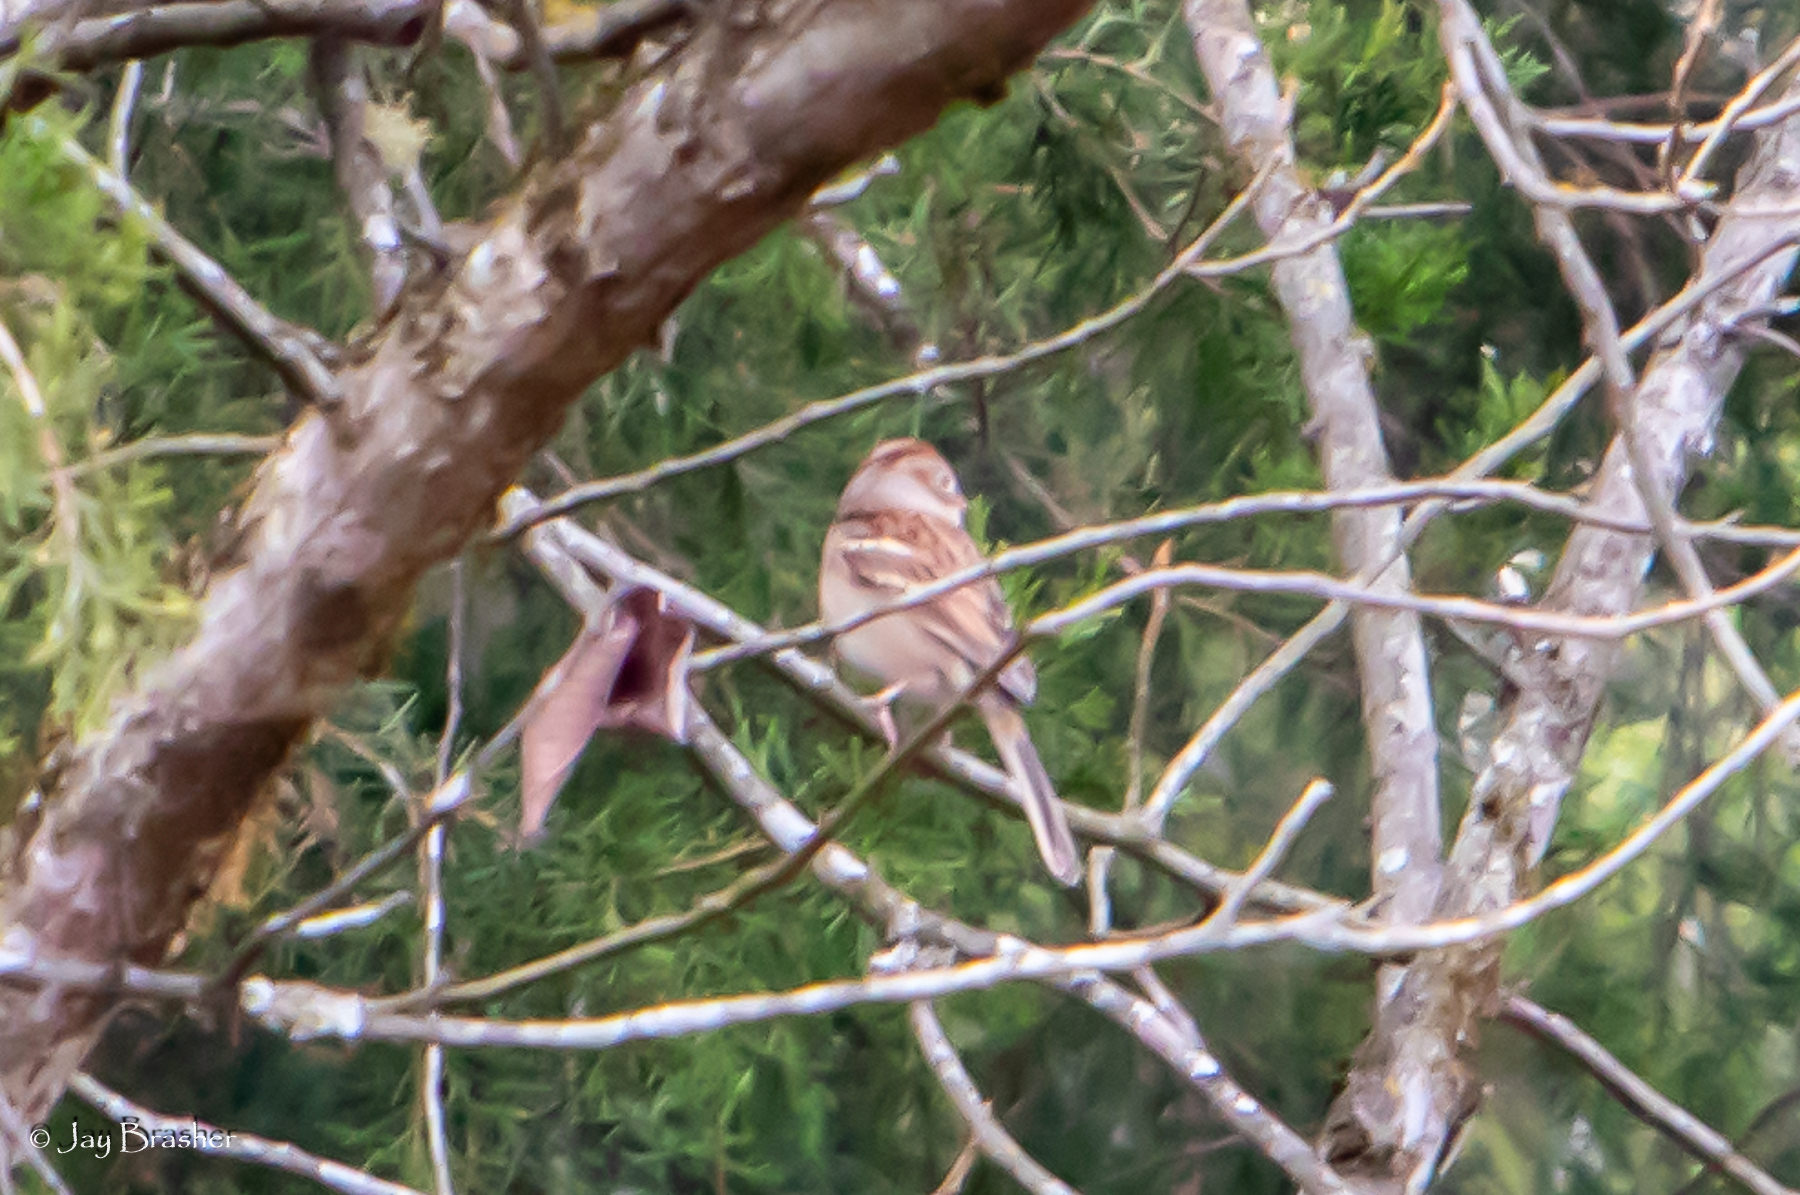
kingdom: Animalia
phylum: Chordata
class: Aves
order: Passeriformes
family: Passerellidae
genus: Spizella
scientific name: Spizella pusilla
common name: Field sparrow
